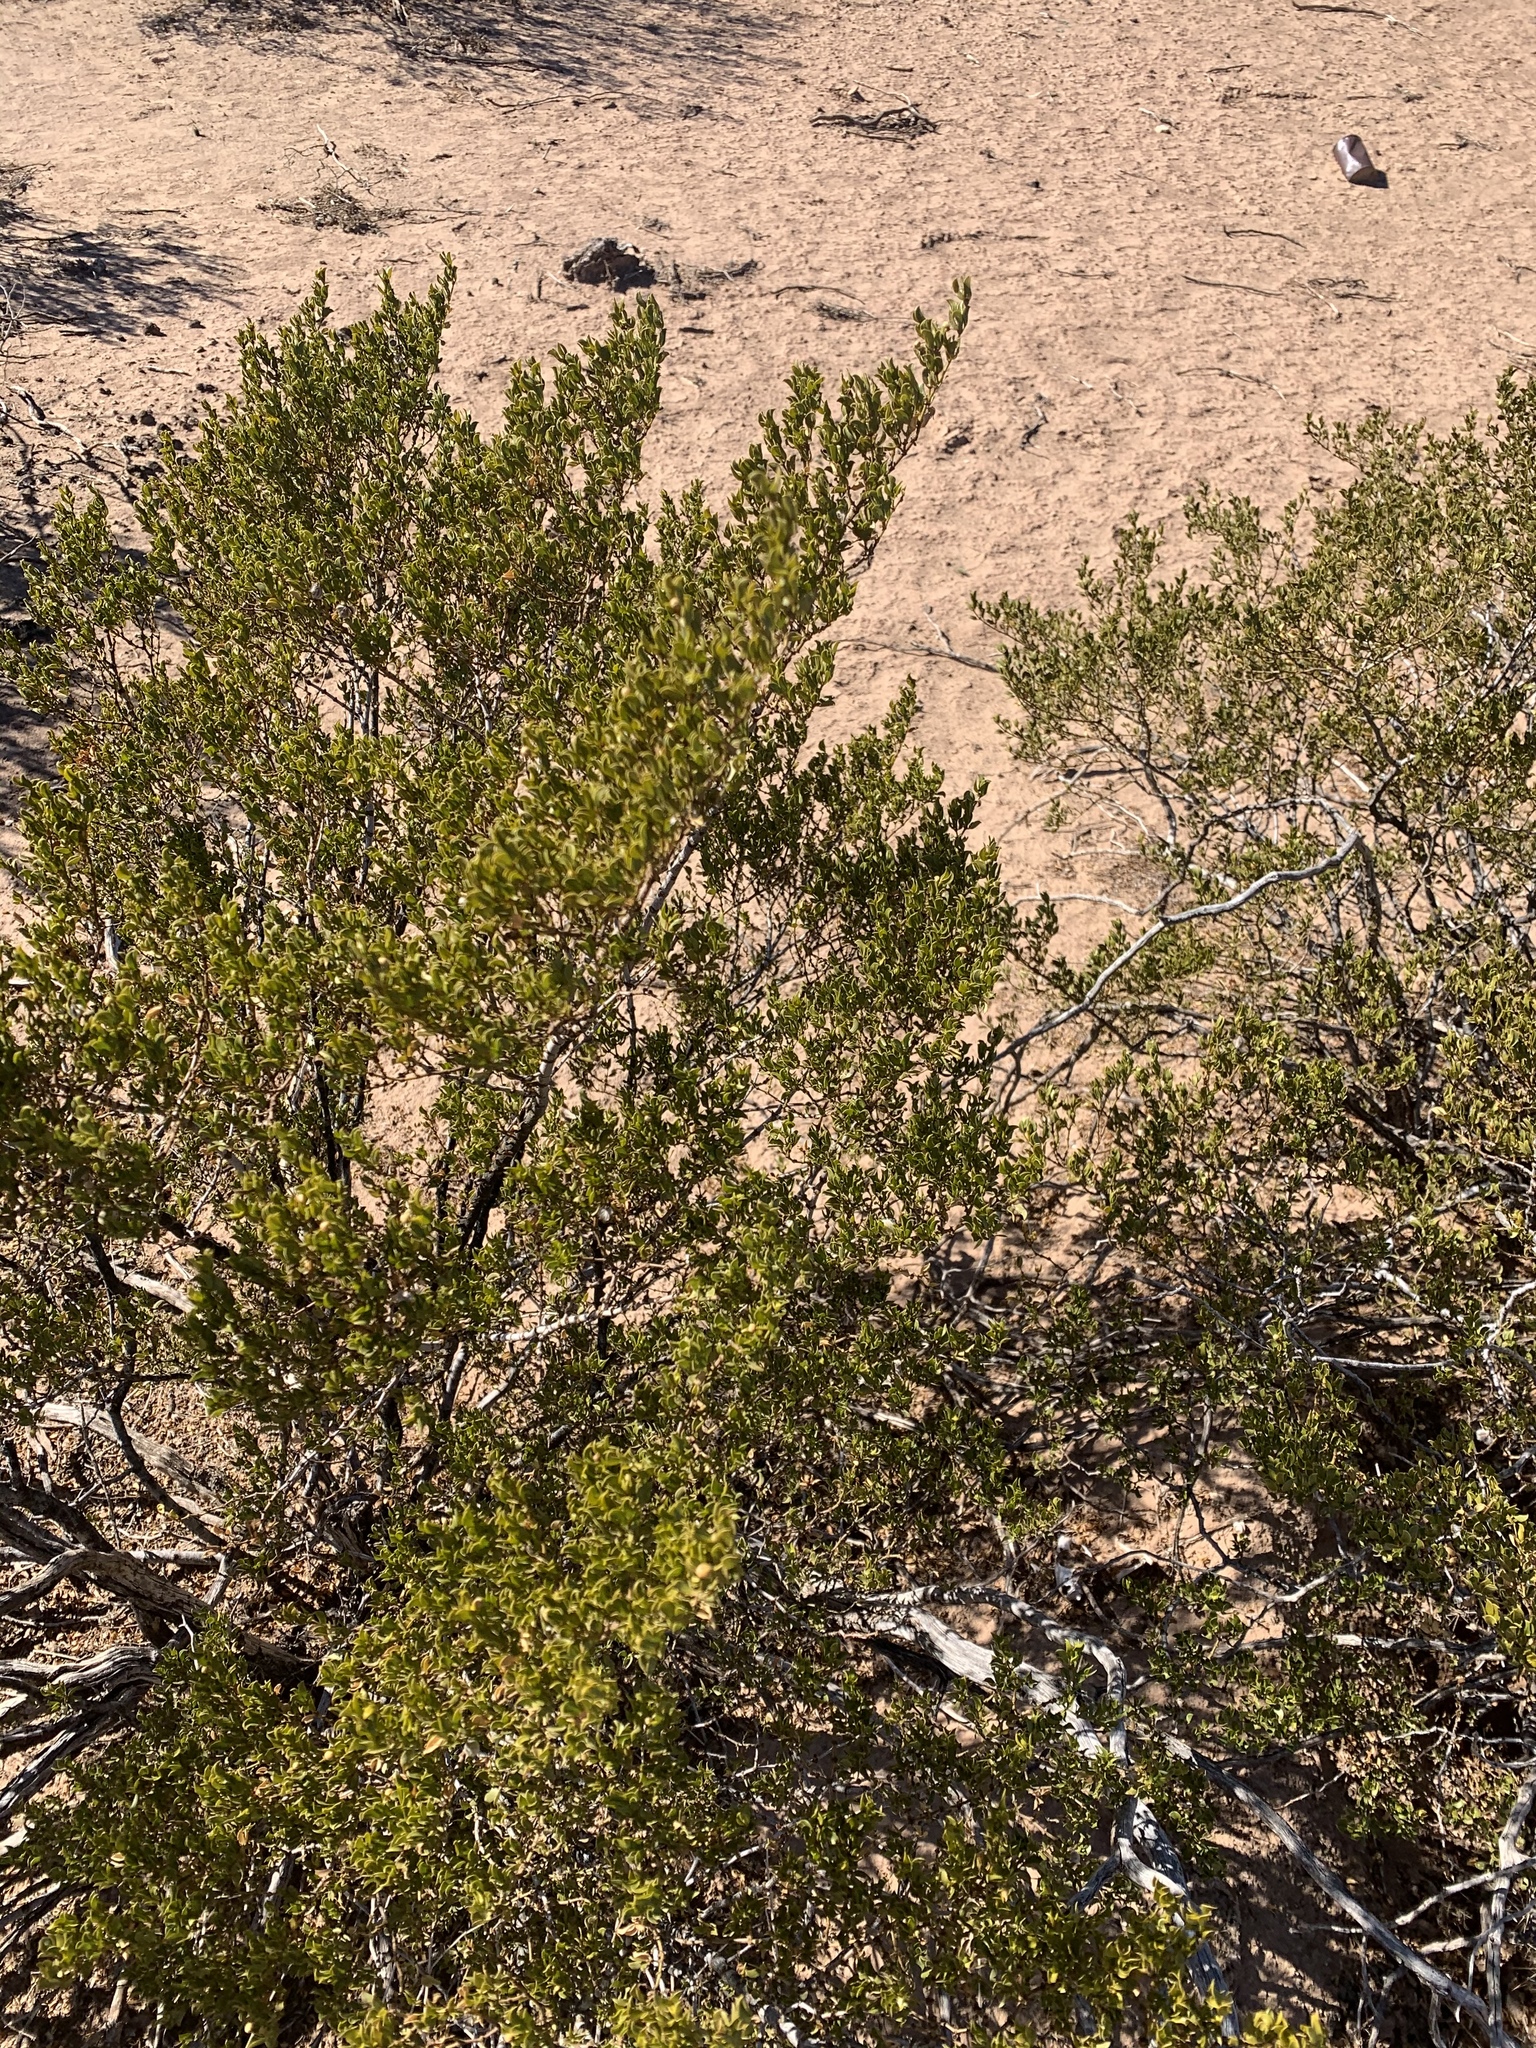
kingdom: Plantae
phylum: Tracheophyta
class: Magnoliopsida
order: Zygophyllales
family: Zygophyllaceae
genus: Larrea
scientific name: Larrea tridentata
